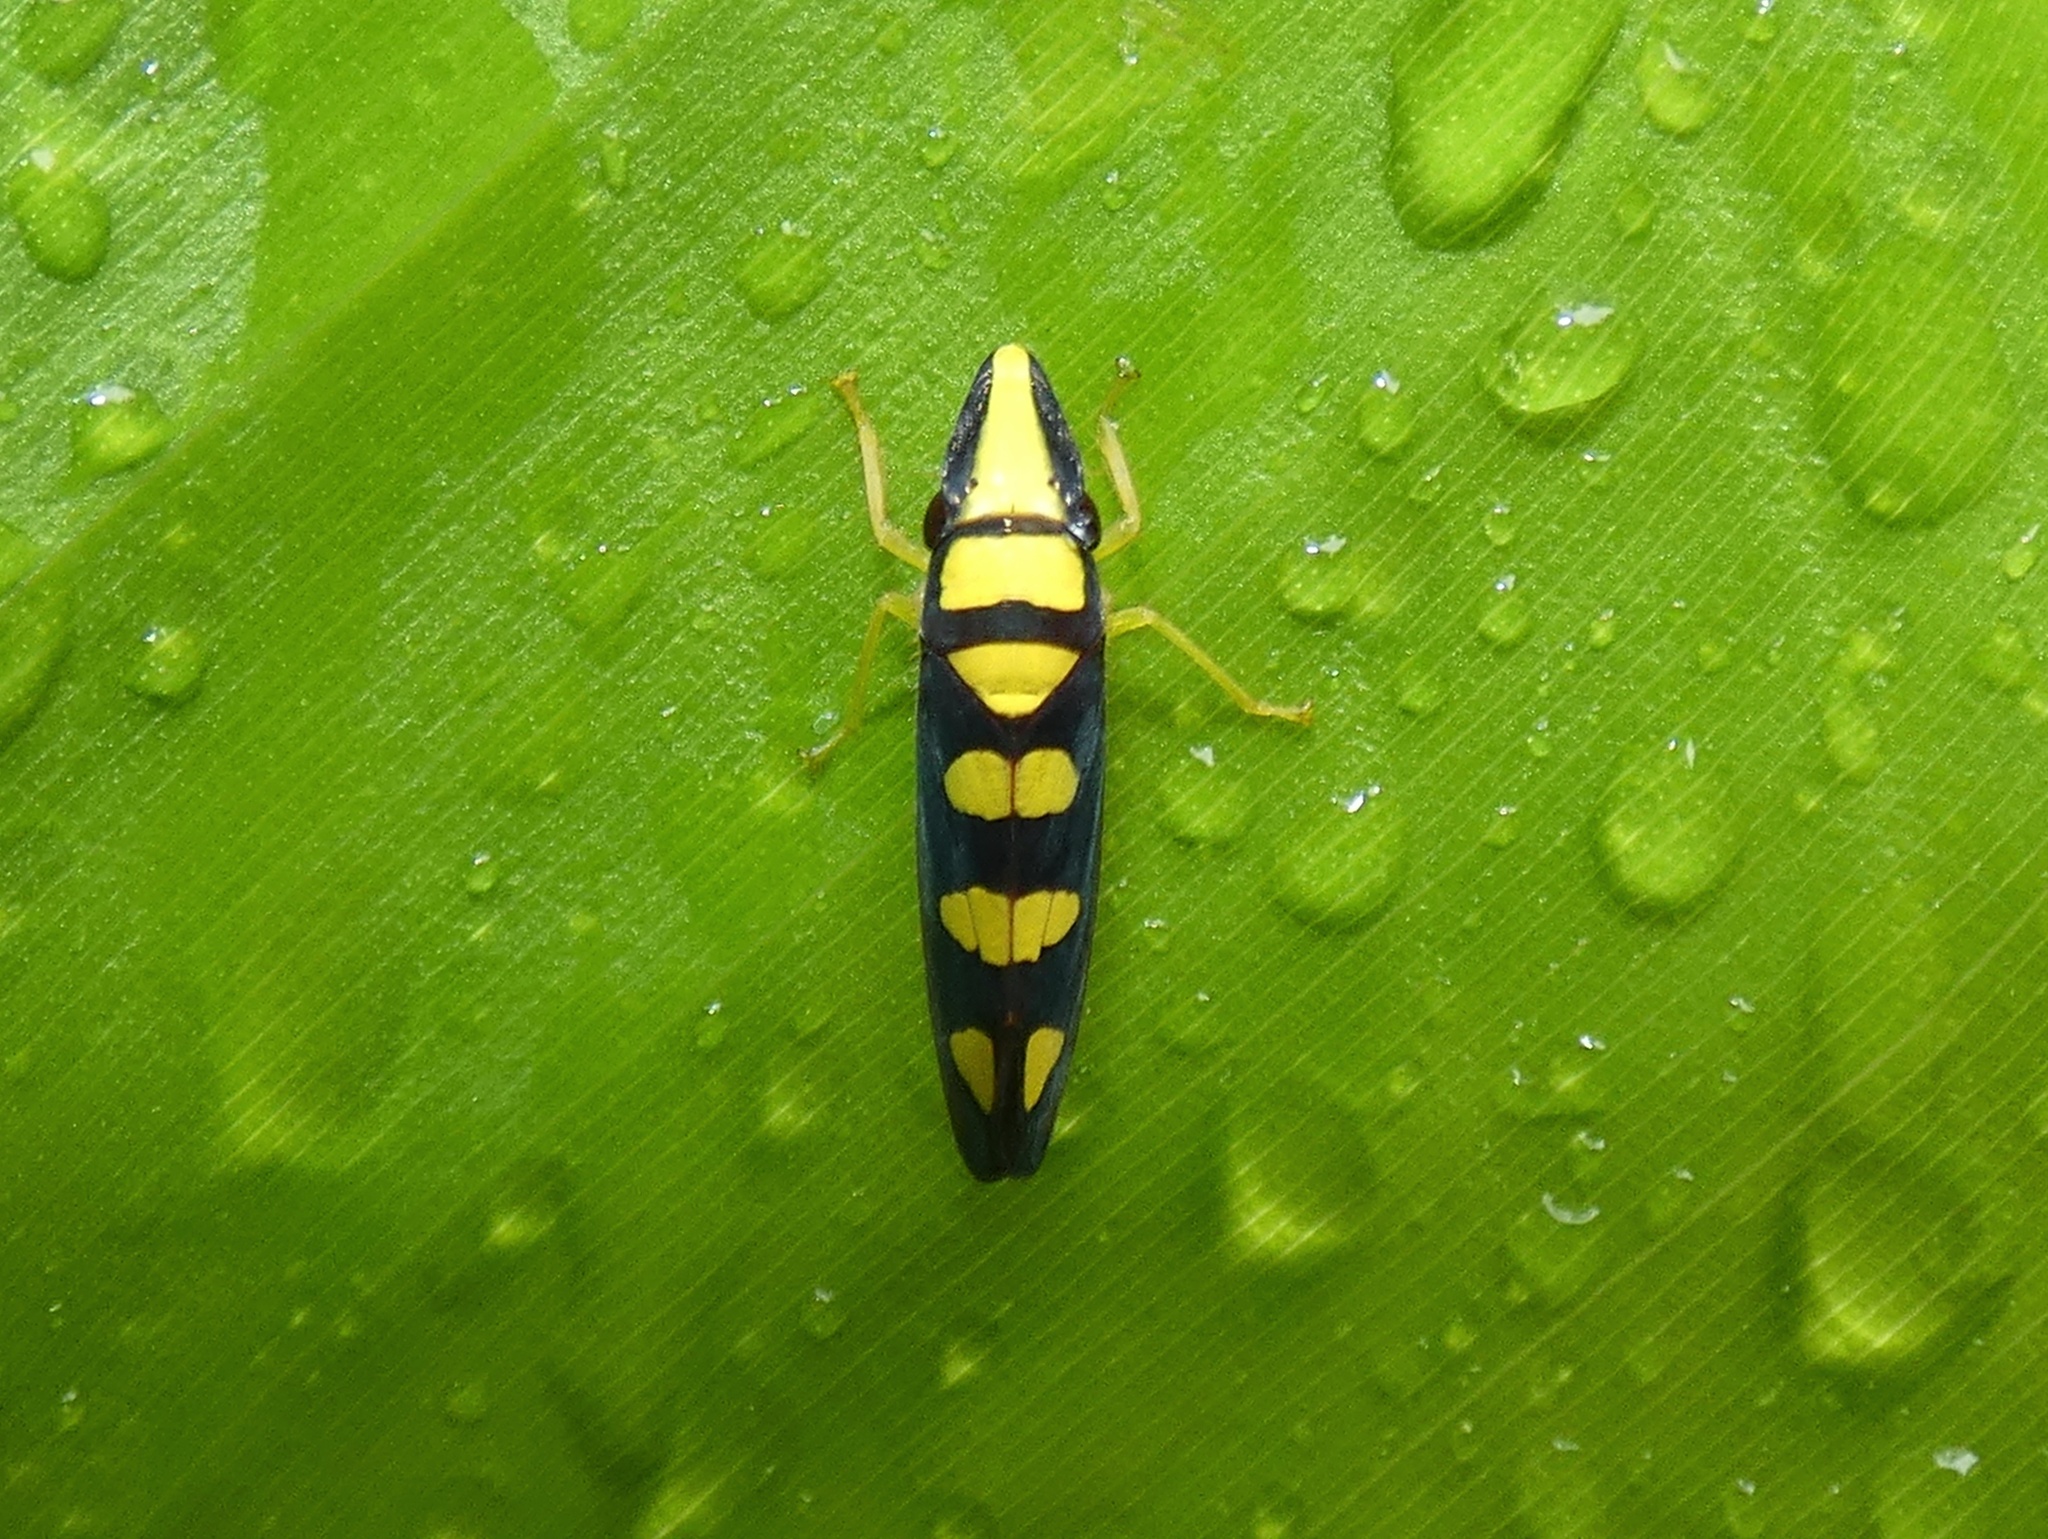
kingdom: Animalia
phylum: Arthropoda
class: Insecta
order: Hemiptera
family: Cicadellidae
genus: Platygonia
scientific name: Platygonia spatulata
